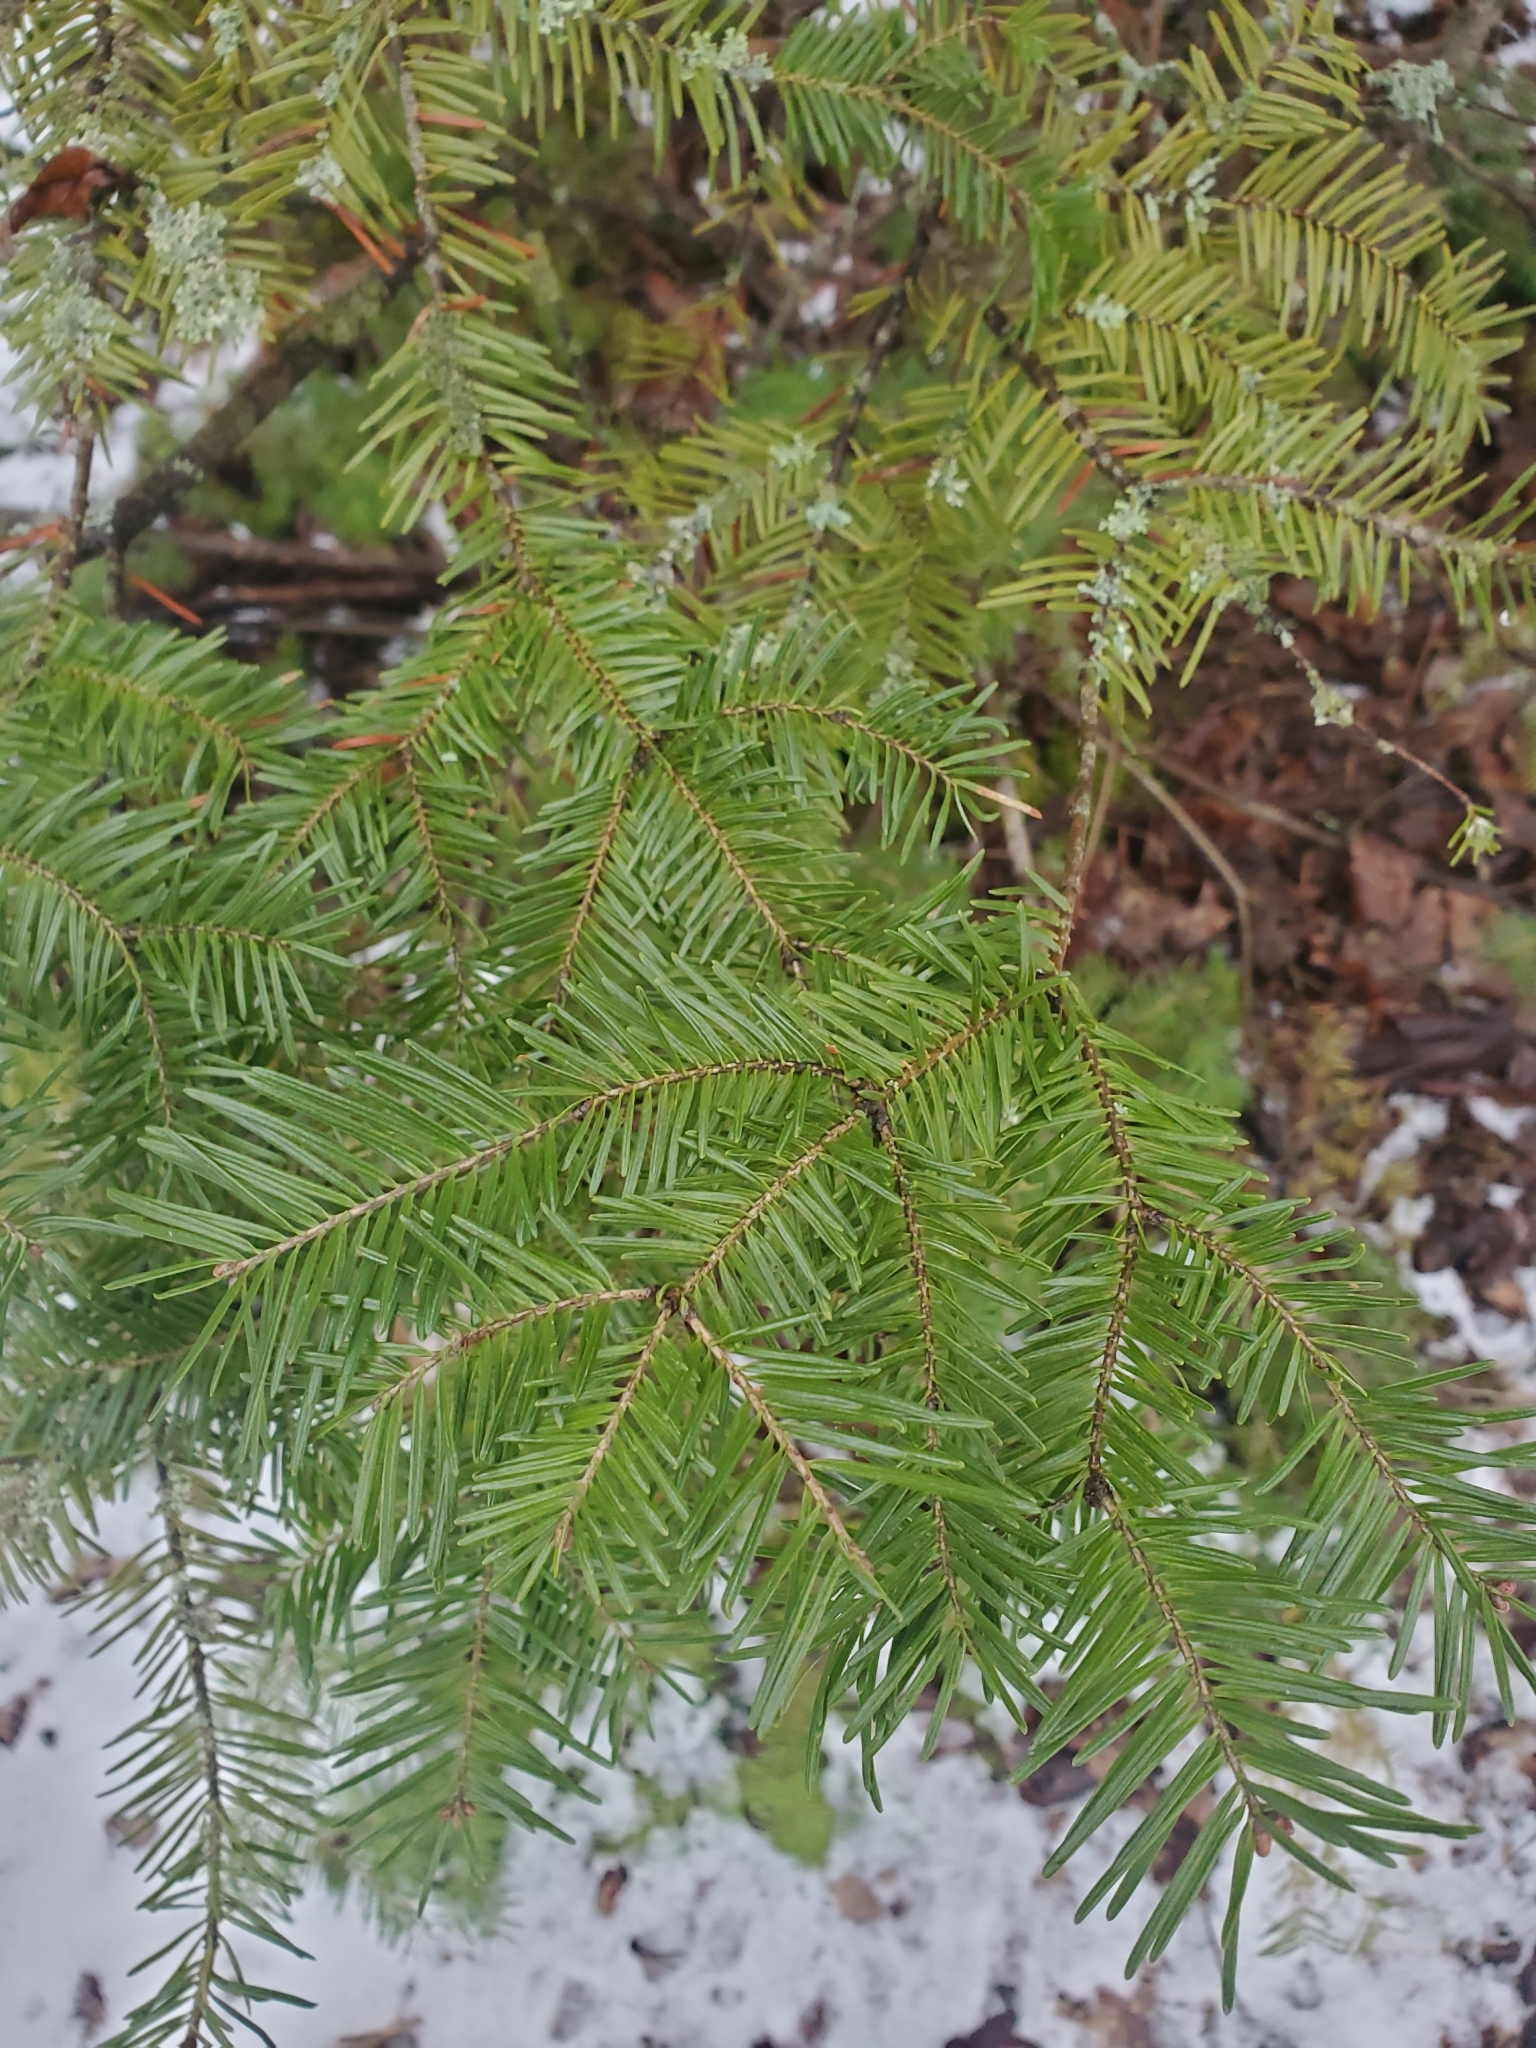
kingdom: Plantae
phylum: Tracheophyta
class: Pinopsida
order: Pinales
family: Pinaceae
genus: Abies
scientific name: Abies balsamea
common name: Balsam fir
